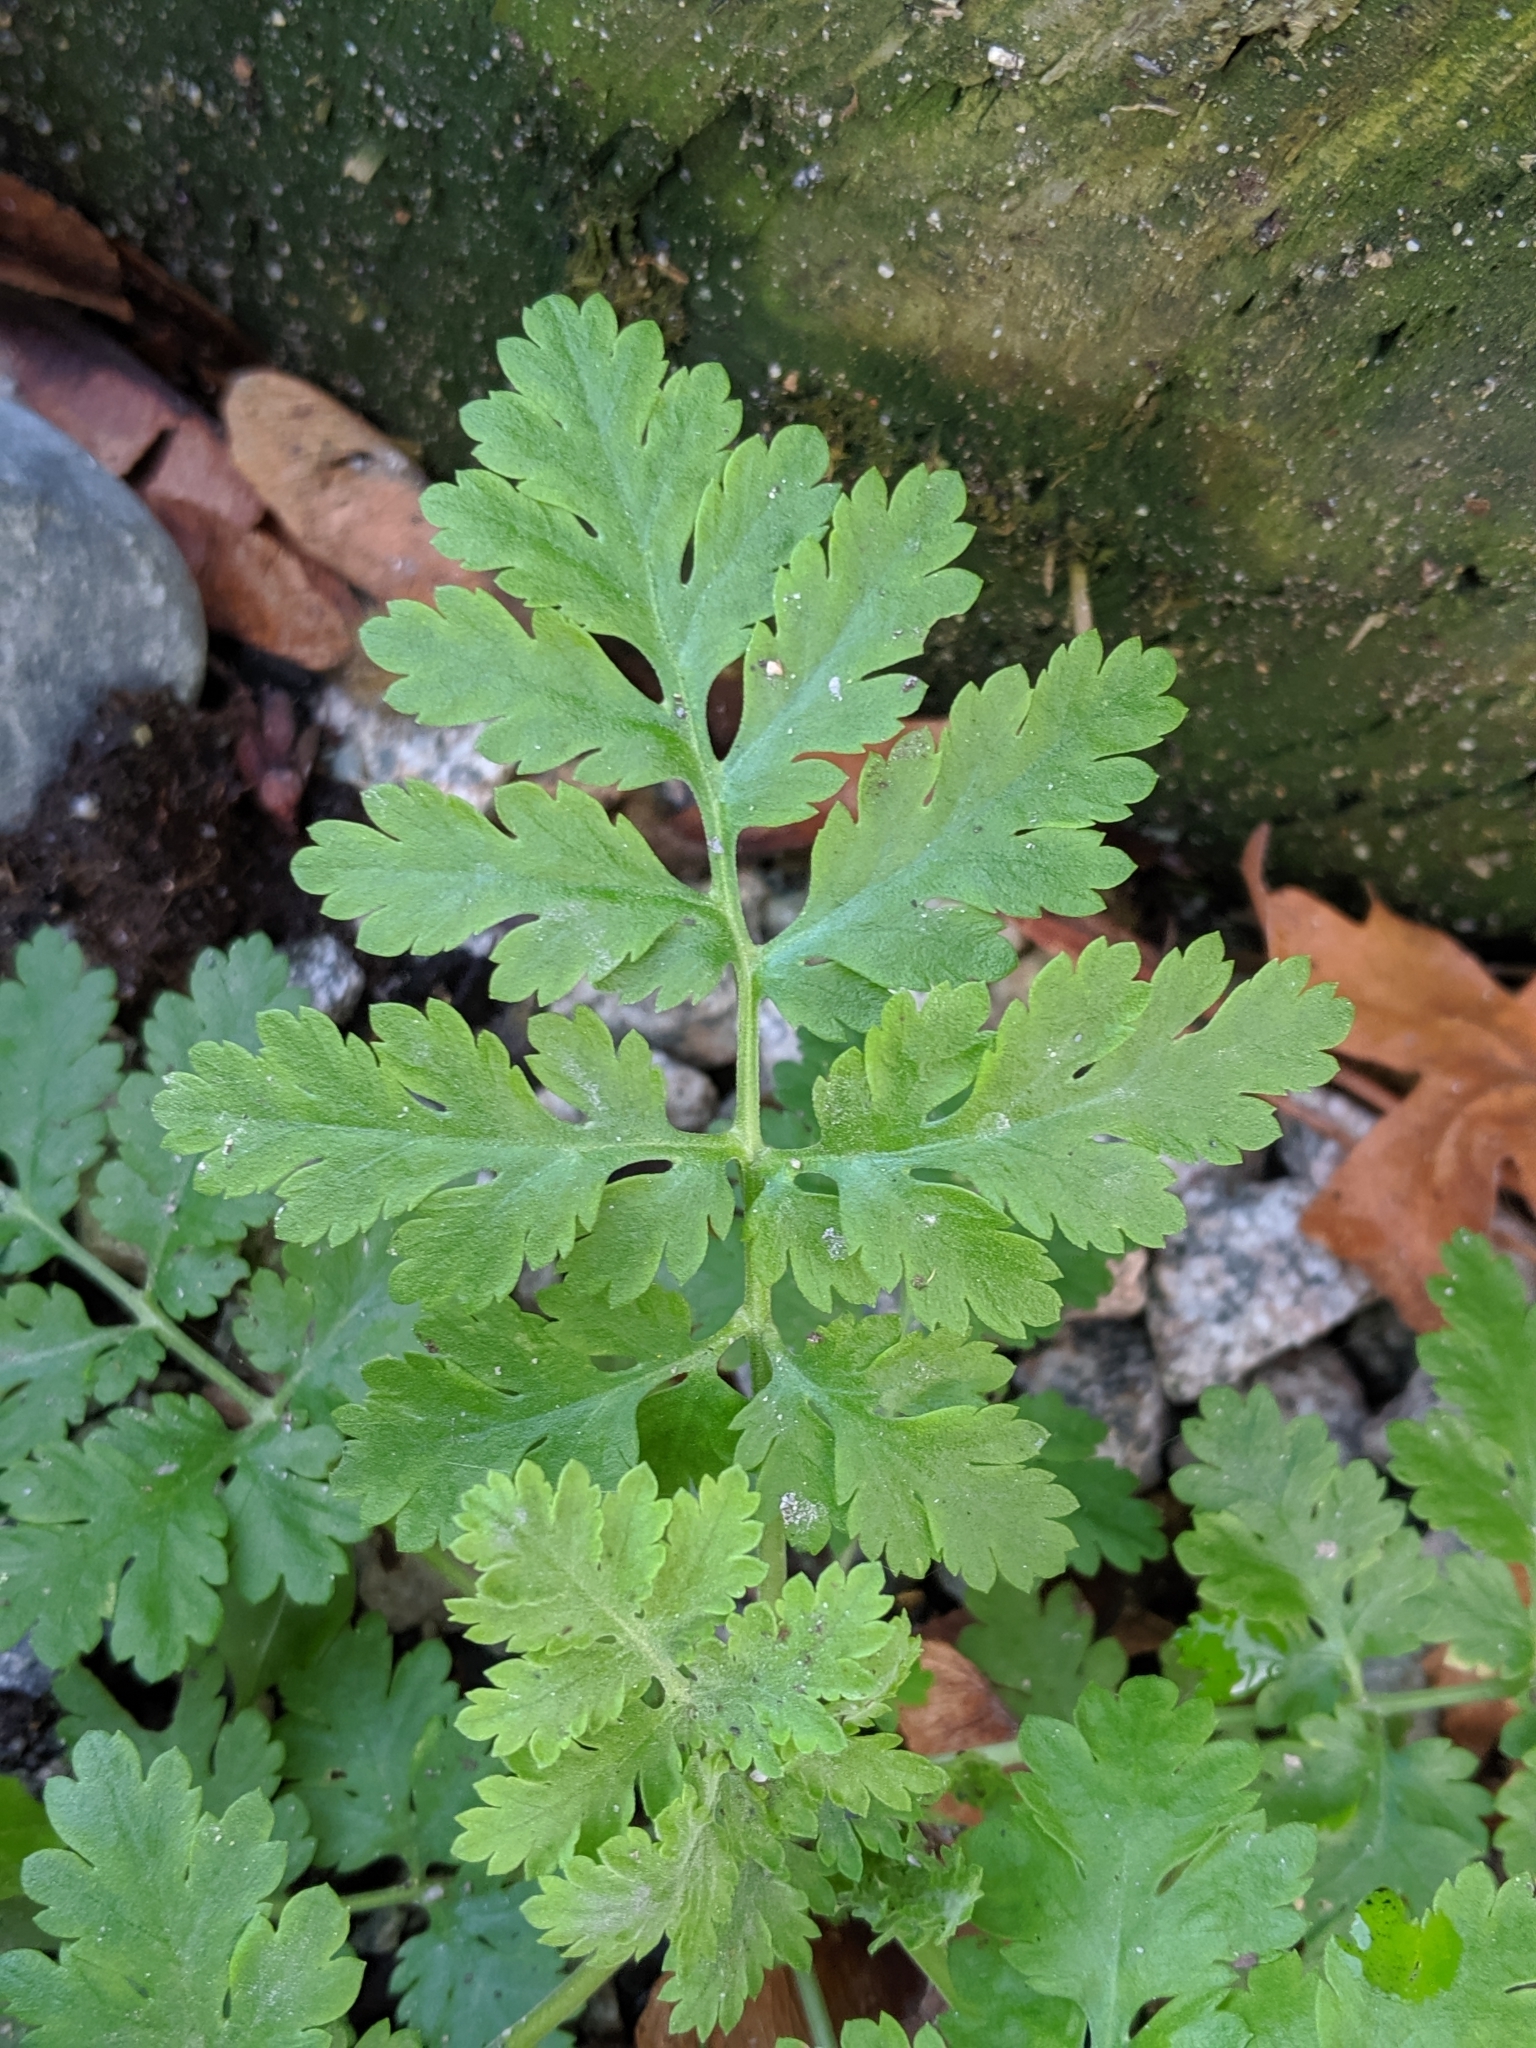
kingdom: Plantae
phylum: Tracheophyta
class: Magnoliopsida
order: Asterales
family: Asteraceae
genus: Tanacetum
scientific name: Tanacetum parthenium
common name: Feverfew
